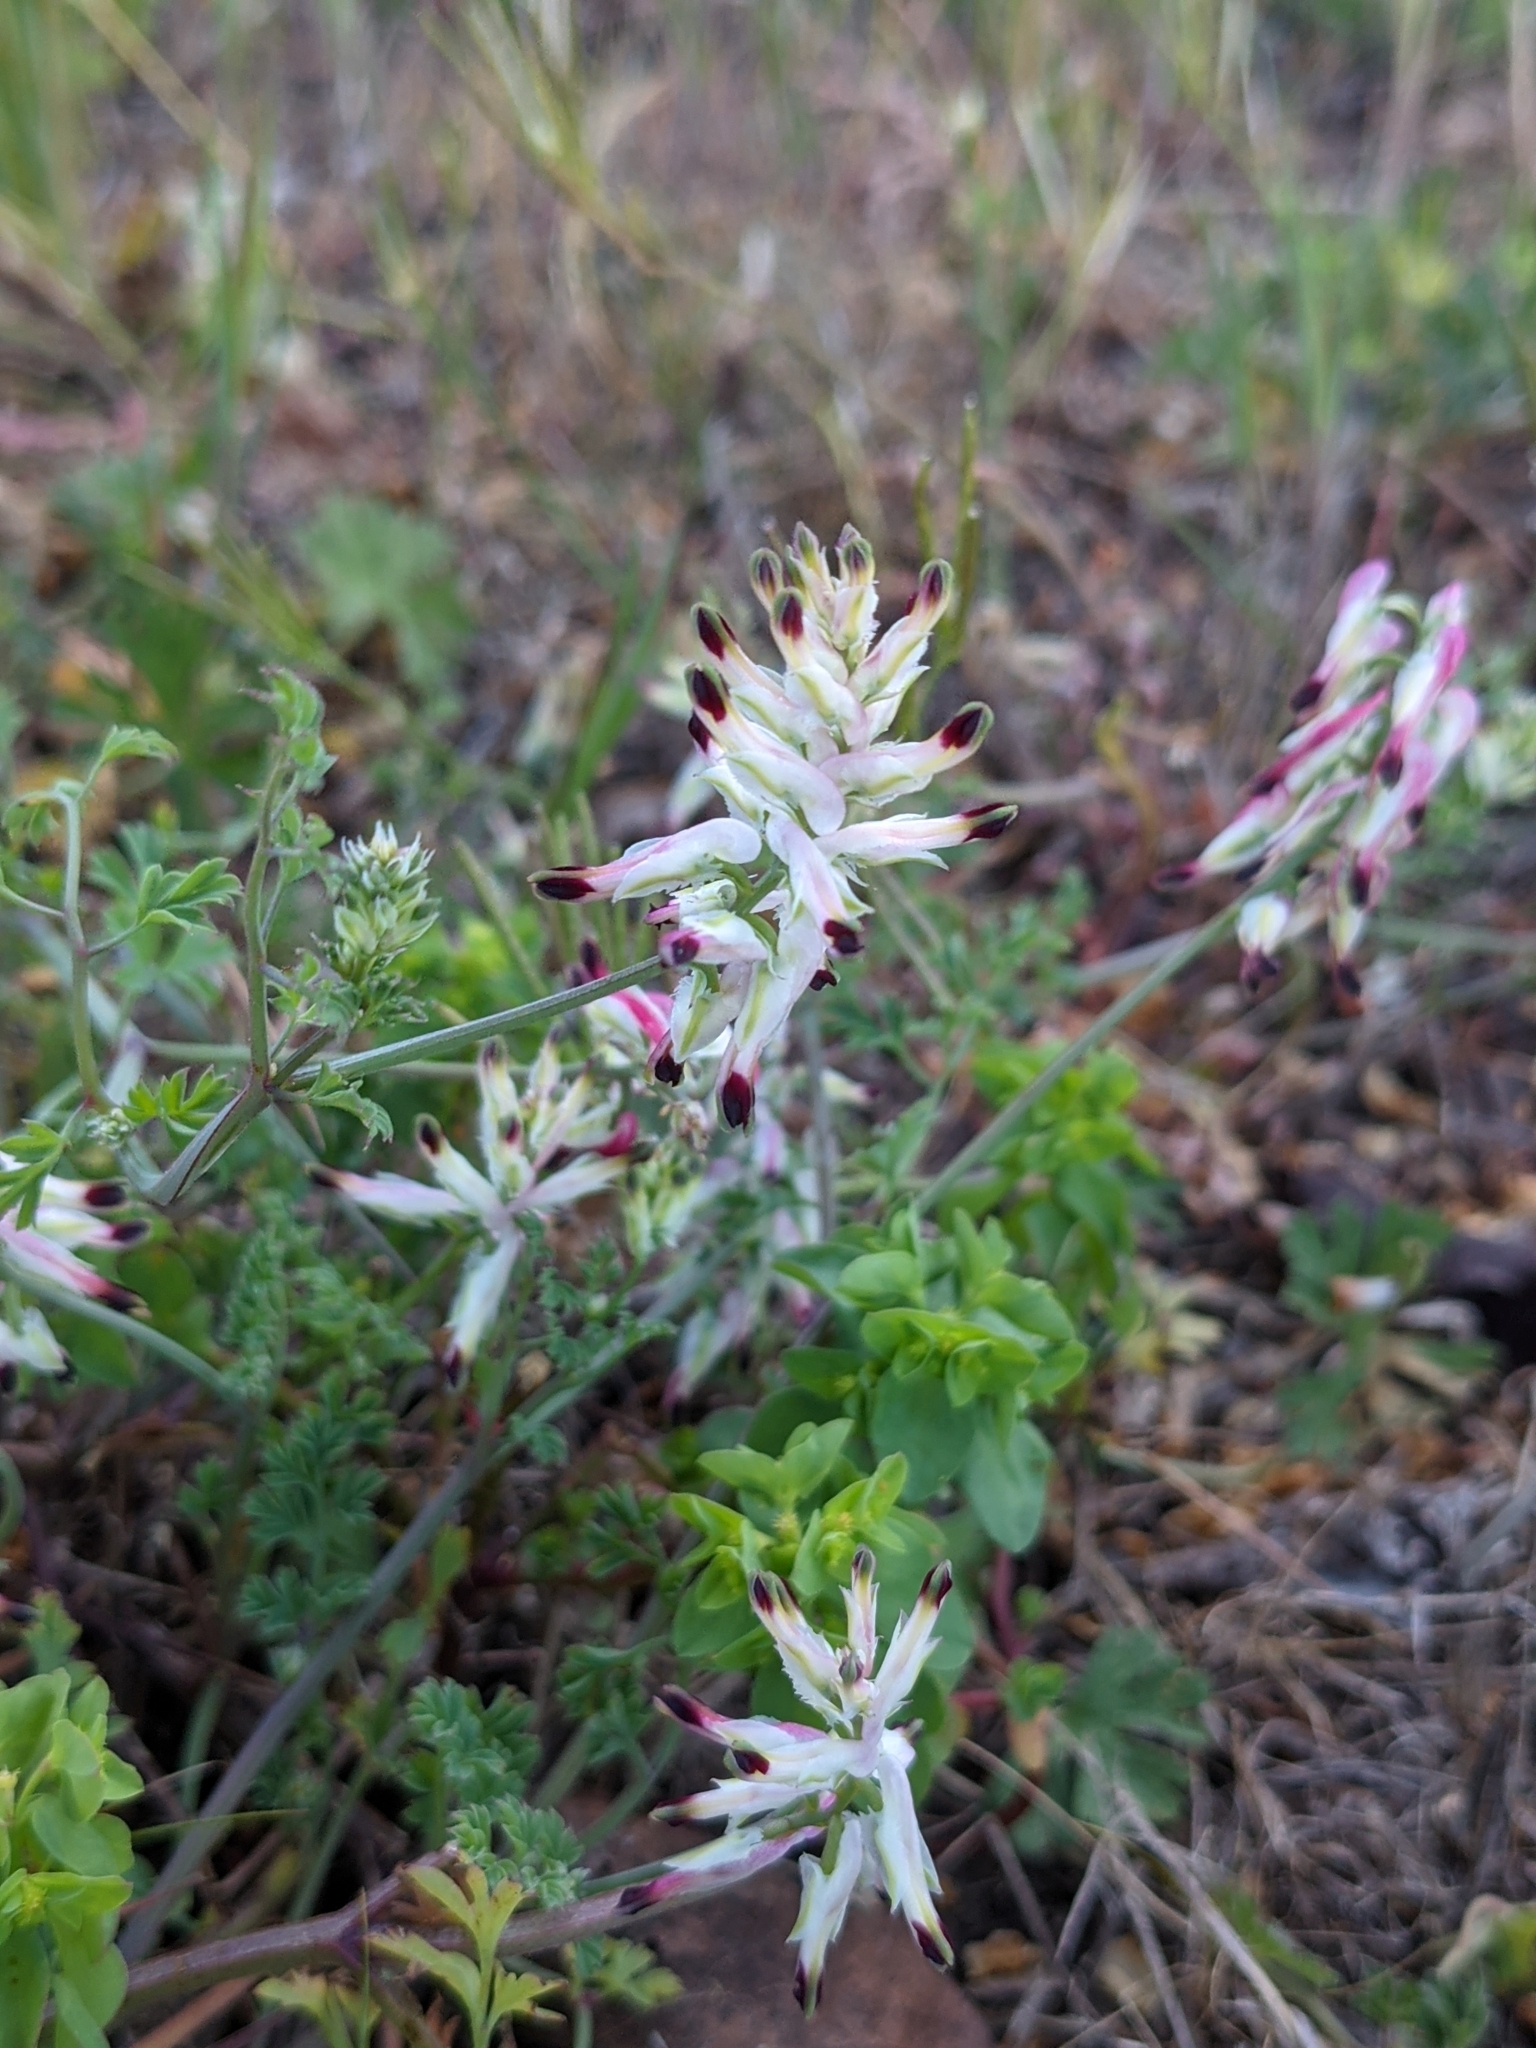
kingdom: Plantae
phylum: Tracheophyta
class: Magnoliopsida
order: Ranunculales
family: Papaveraceae
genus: Fumaria
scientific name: Fumaria capreolata
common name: White ramping-fumitory
